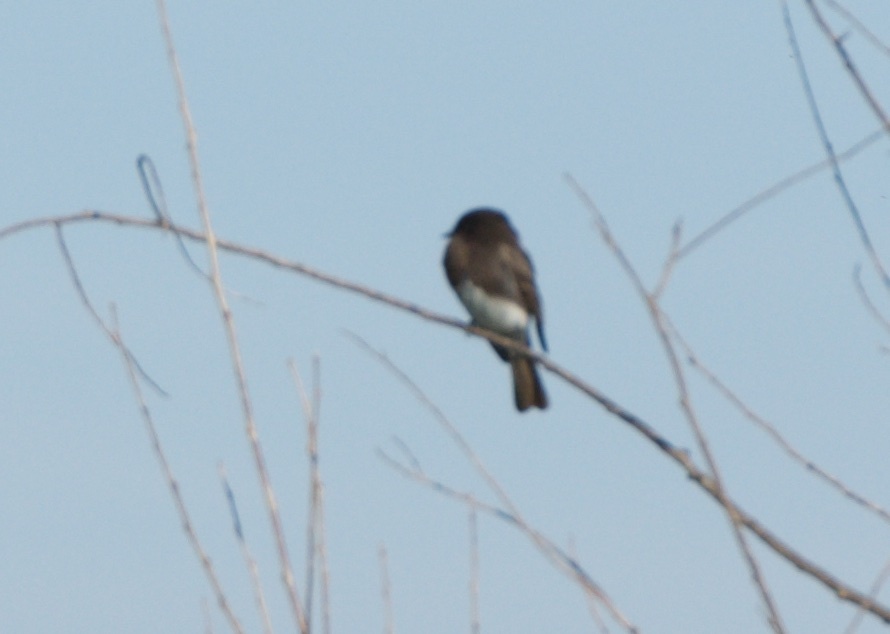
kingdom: Animalia
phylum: Chordata
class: Aves
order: Passeriformes
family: Tyrannidae
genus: Sayornis
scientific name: Sayornis nigricans
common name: Black phoebe
